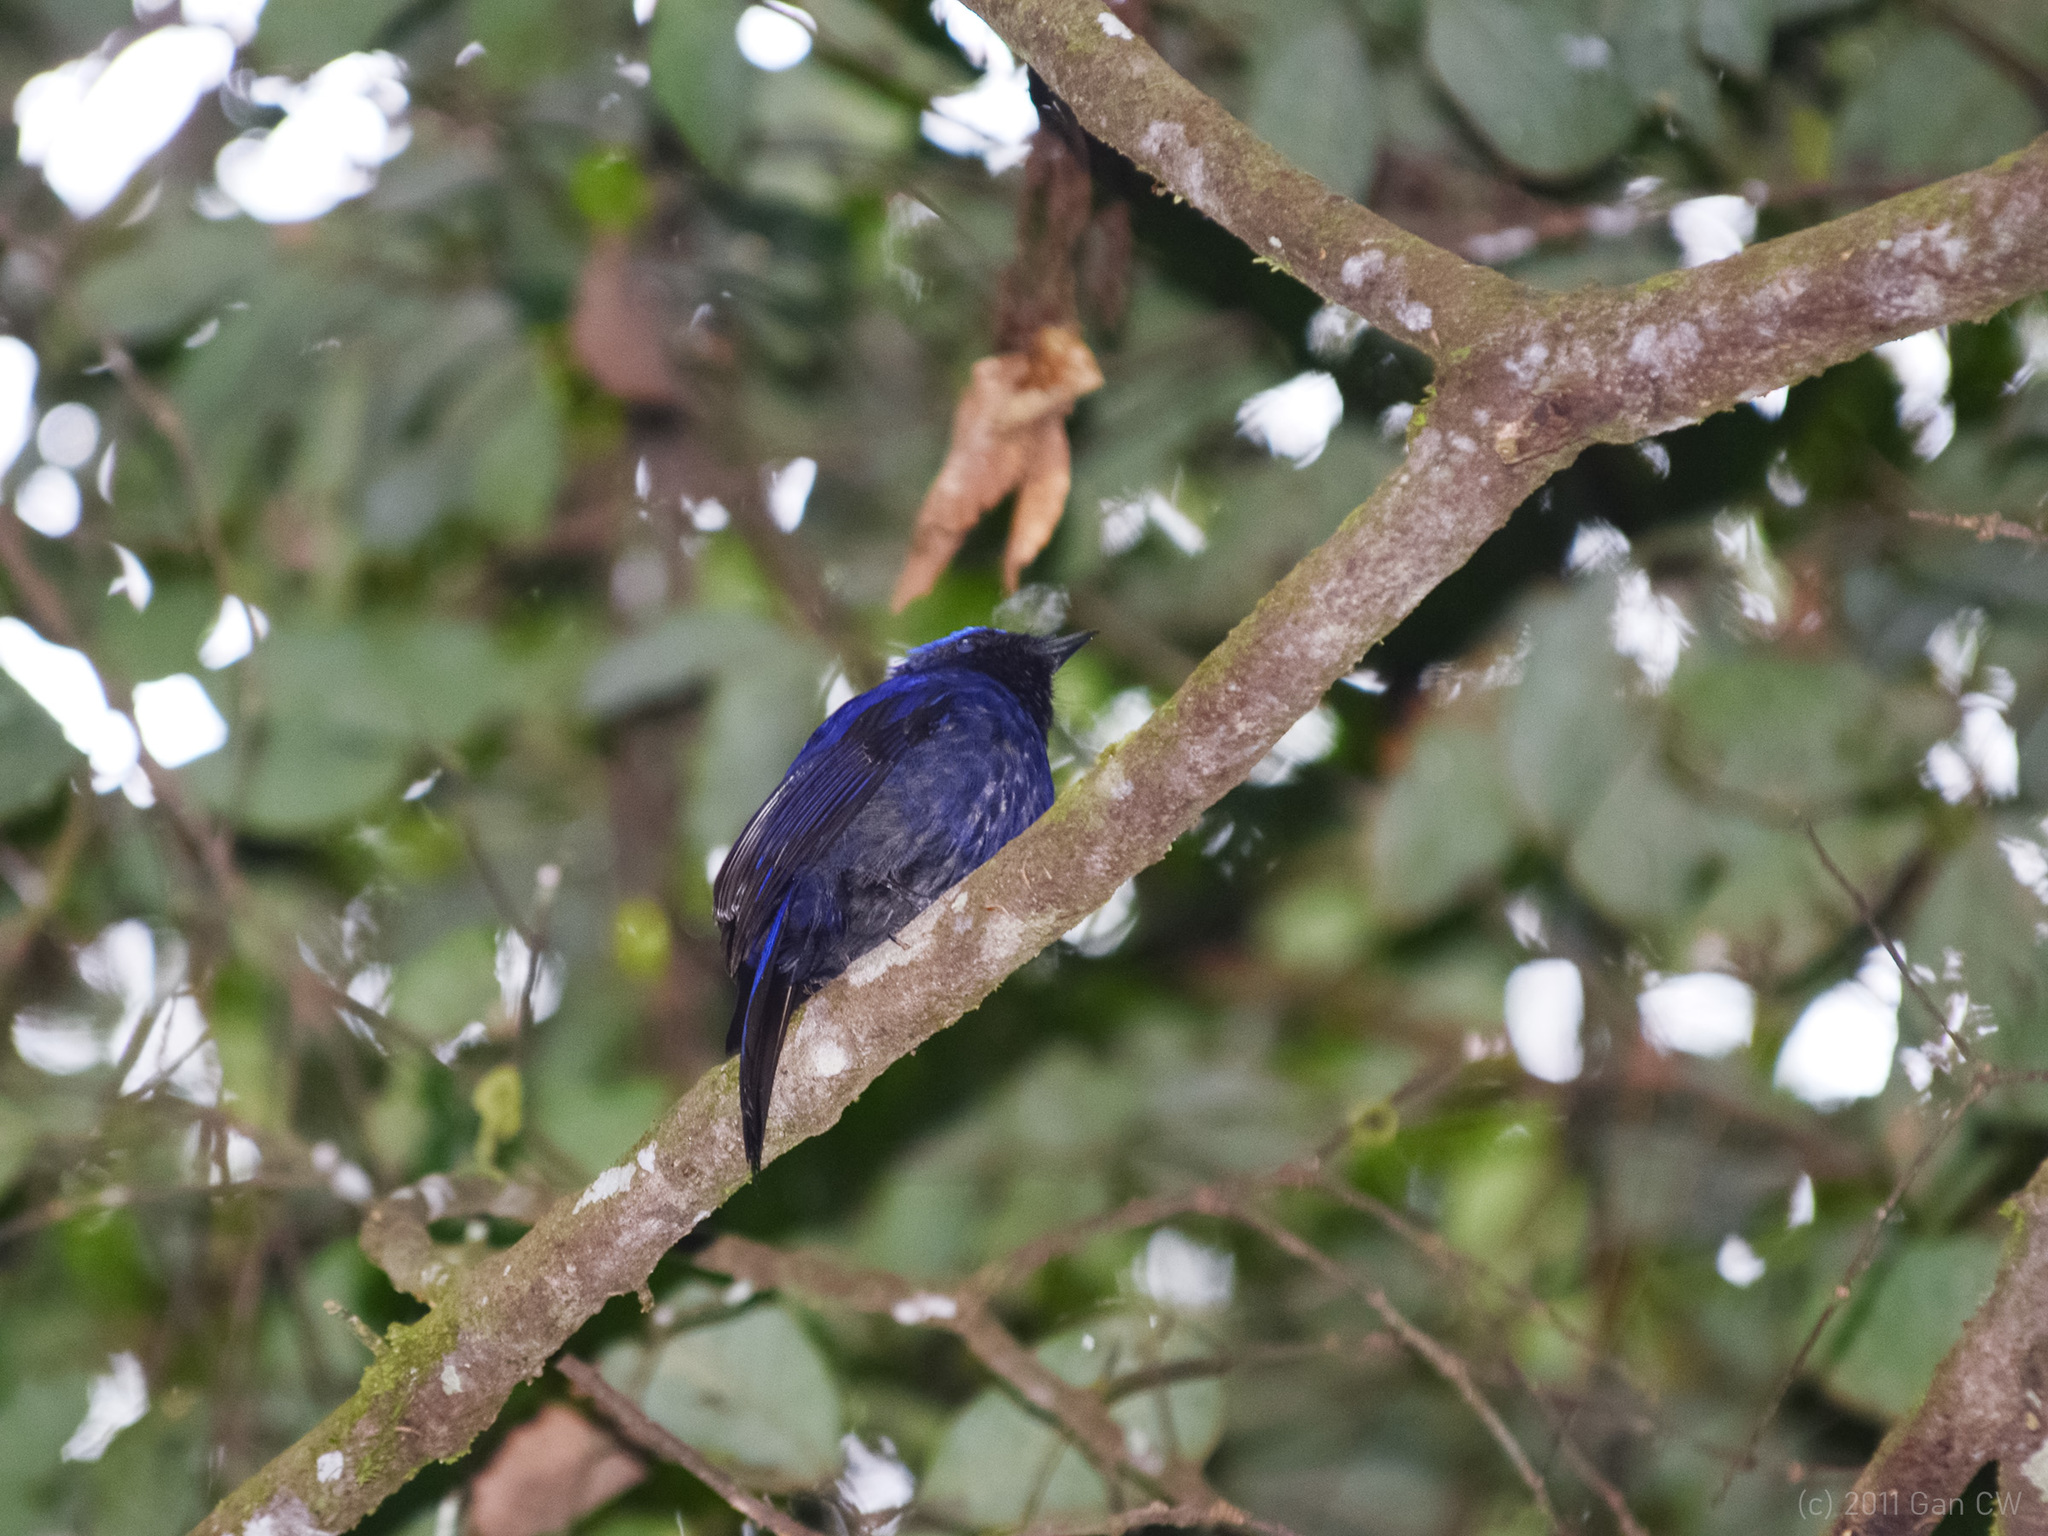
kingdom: Animalia
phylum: Chordata
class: Aves
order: Passeriformes
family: Muscicapidae
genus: Niltava
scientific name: Niltava grandis
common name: Large niltava
